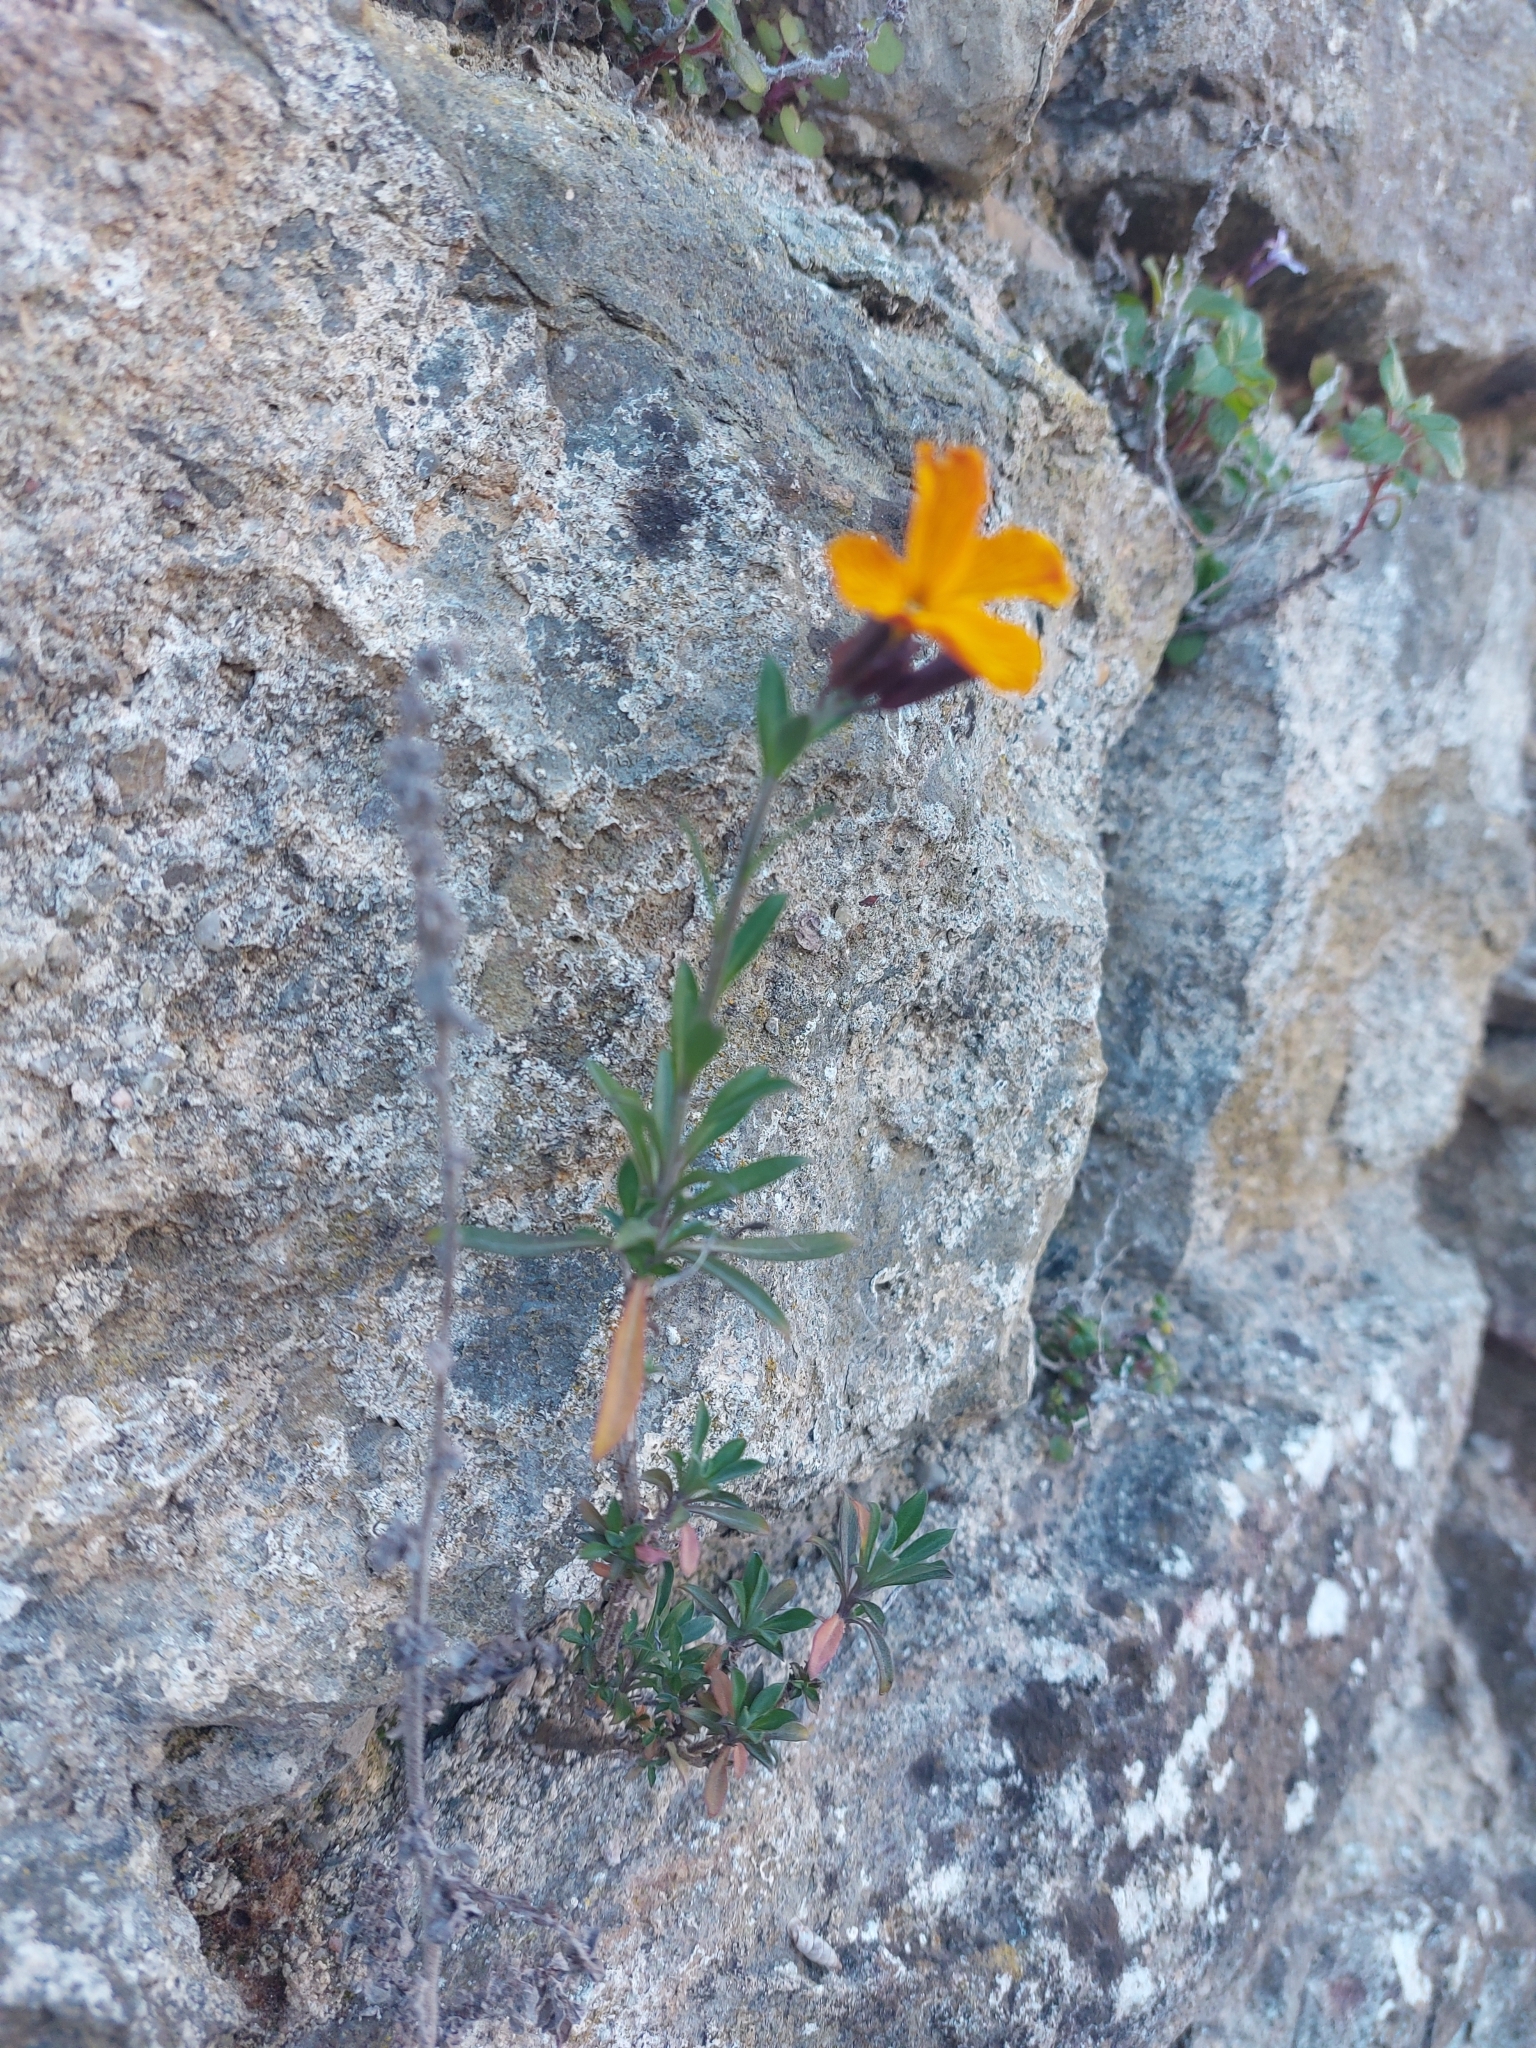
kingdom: Plantae
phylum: Tracheophyta
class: Magnoliopsida
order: Brassicales
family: Brassicaceae
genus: Erysimum
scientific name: Erysimum cheiri
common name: Wallflower
